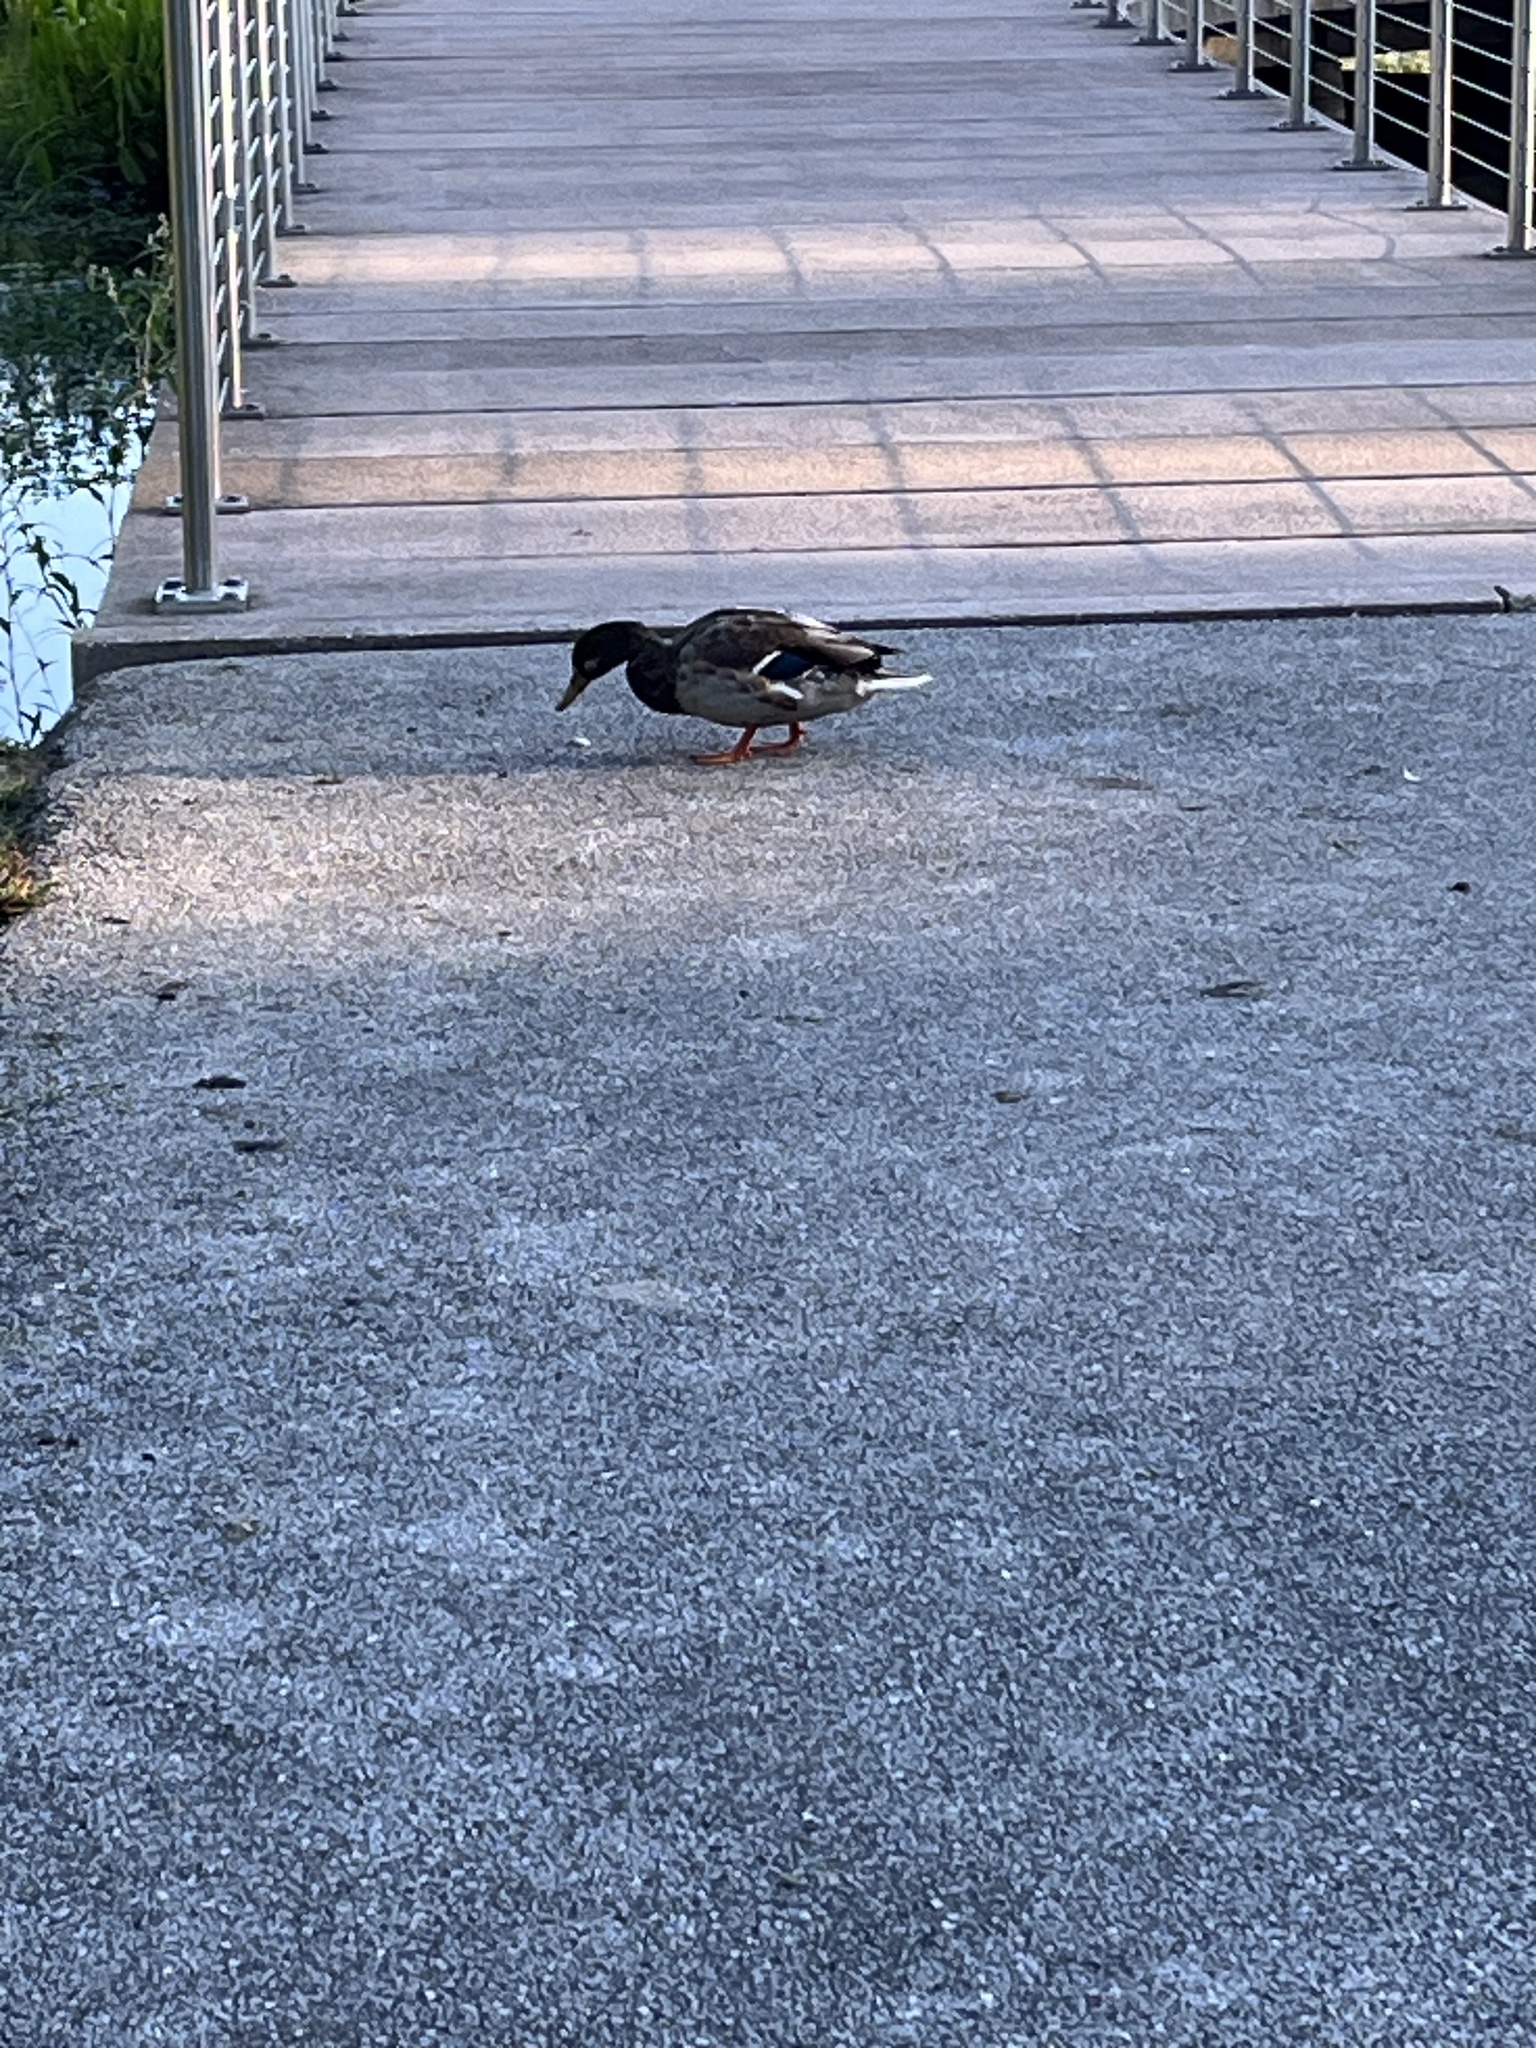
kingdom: Animalia
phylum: Chordata
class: Aves
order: Anseriformes
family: Anatidae
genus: Anas
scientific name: Anas platyrhynchos
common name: Mallard
